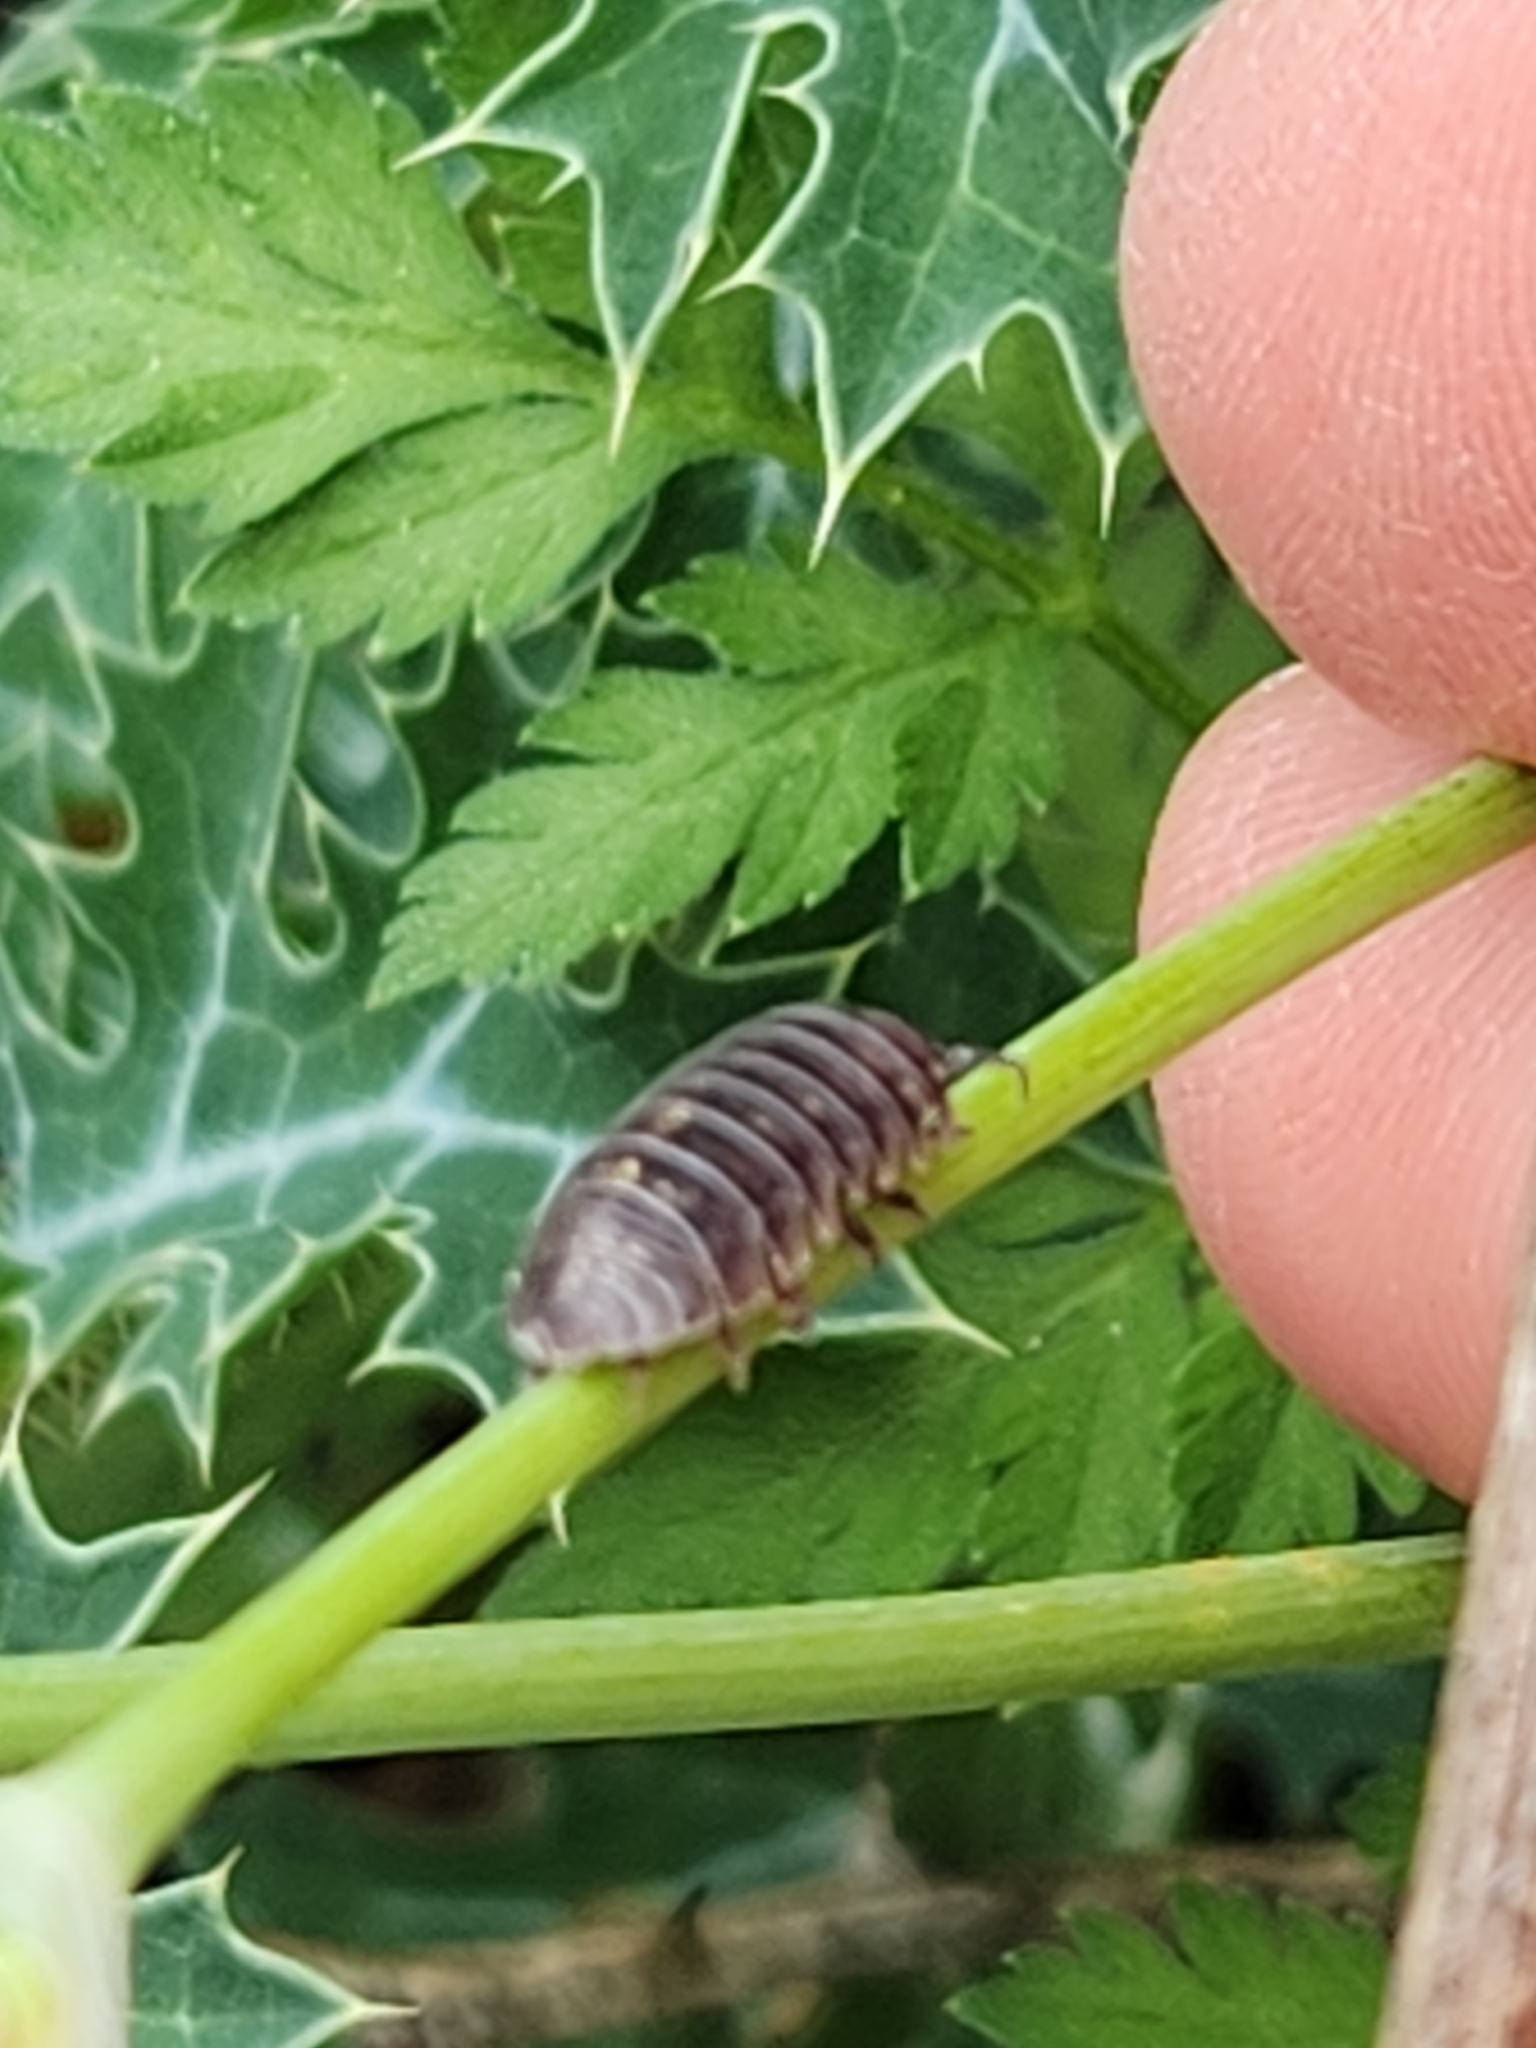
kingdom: Animalia
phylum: Arthropoda
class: Malacostraca
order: Isopoda
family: Armadillidiidae
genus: Armadillidium
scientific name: Armadillidium vulgare
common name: Common pill woodlouse
